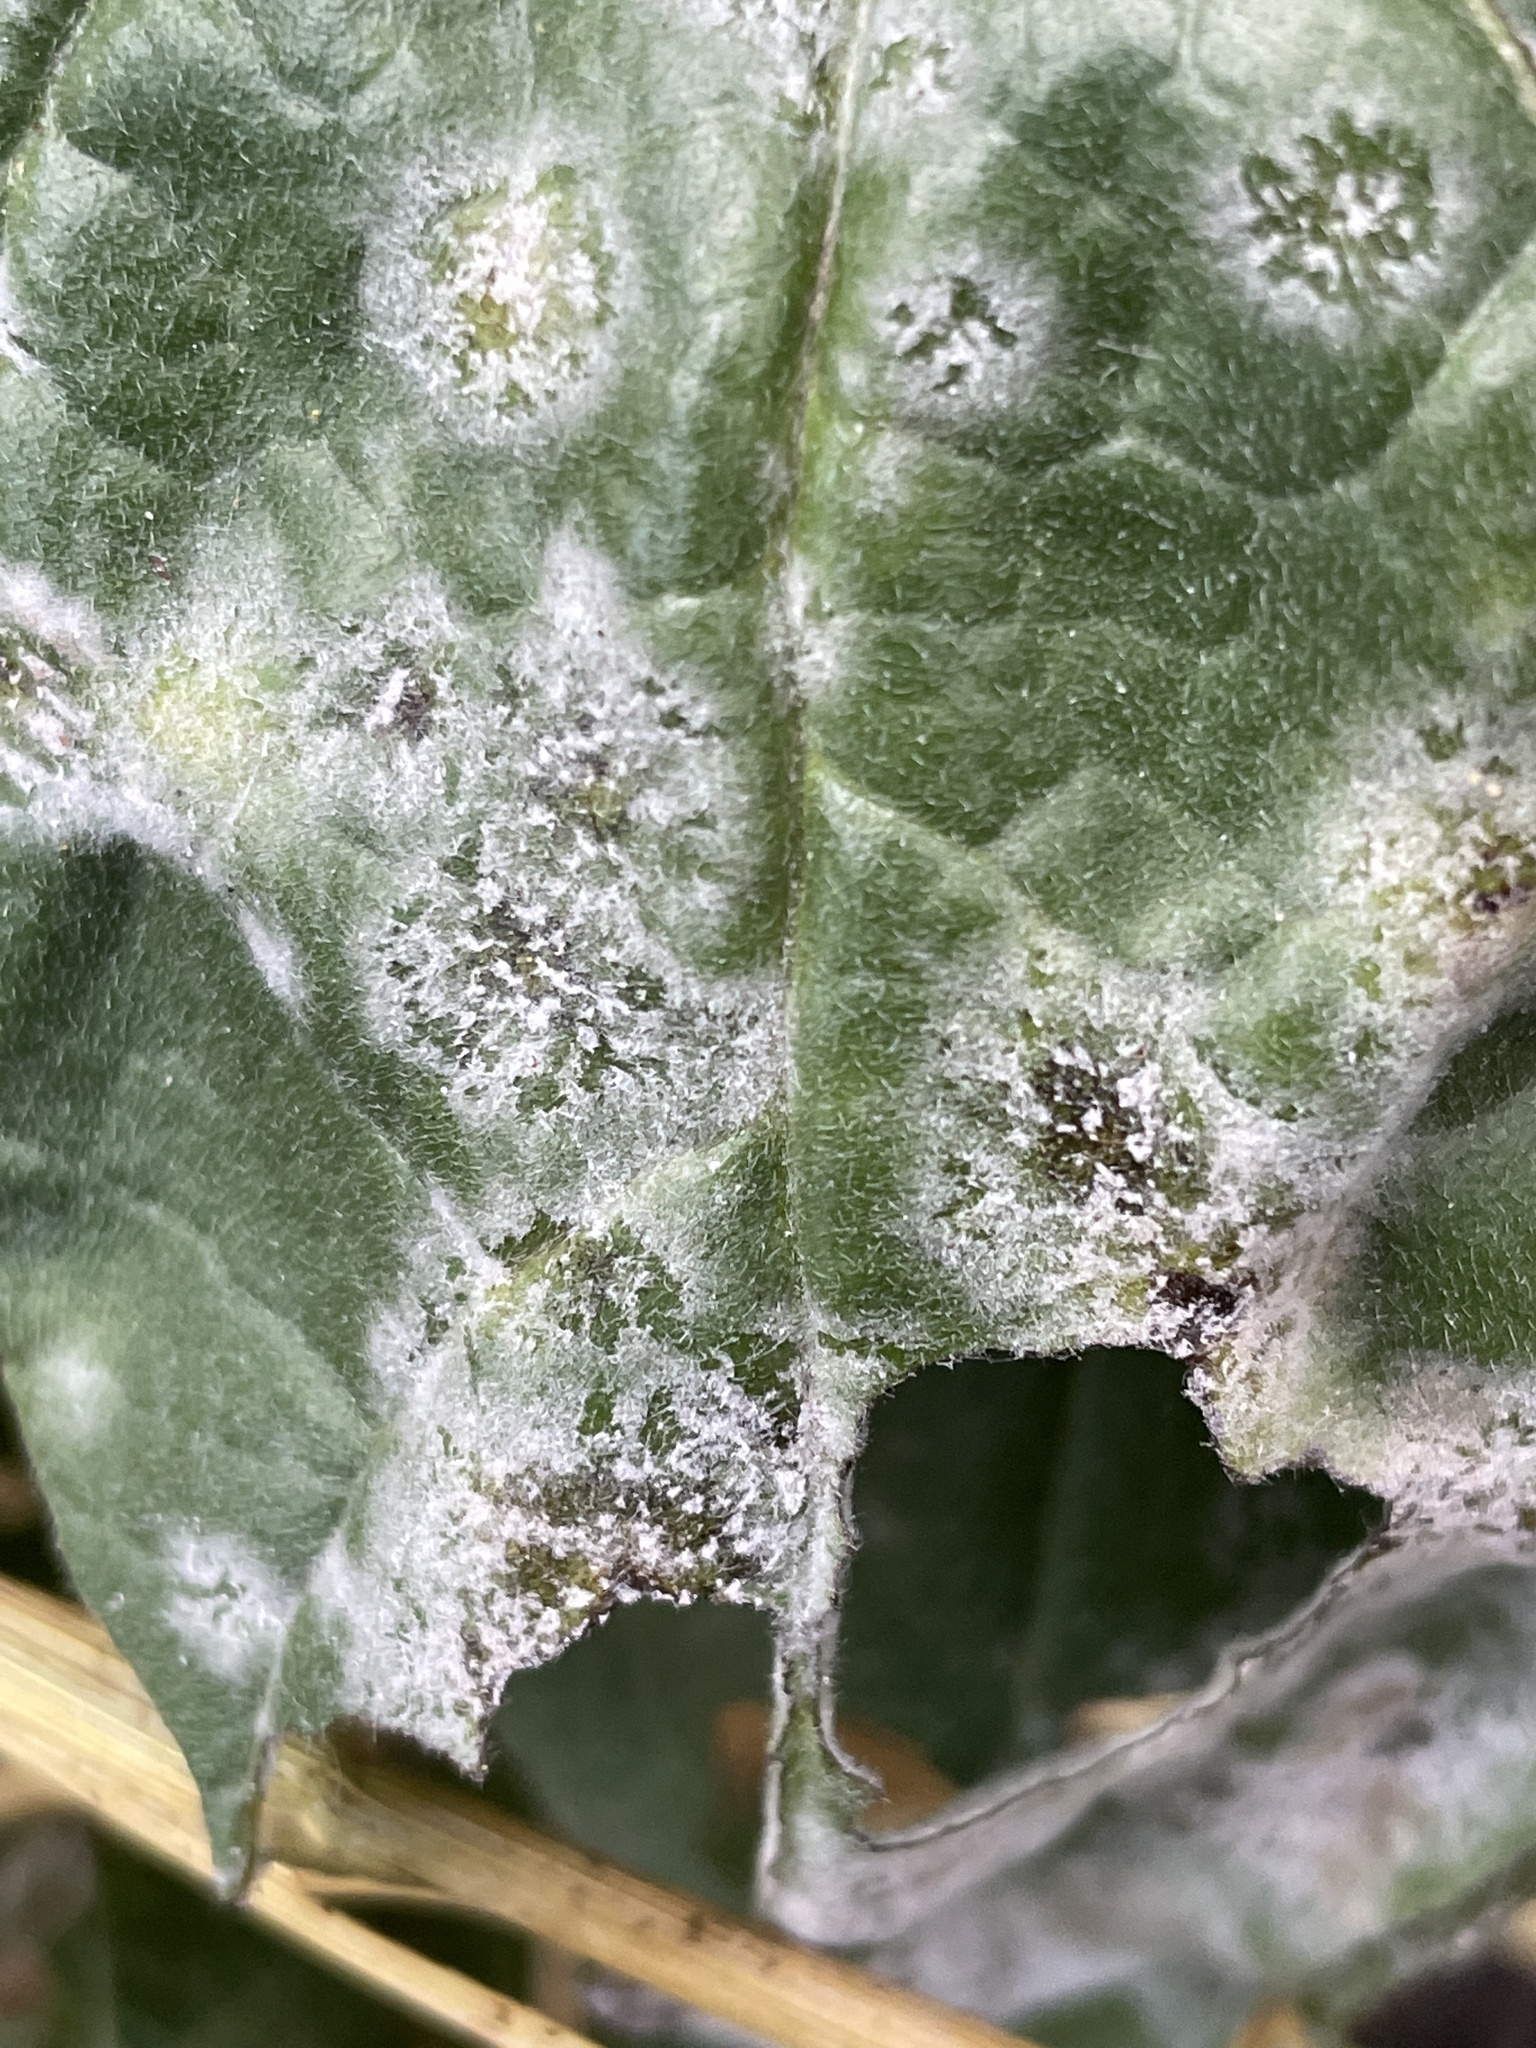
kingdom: Fungi
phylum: Ascomycota
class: Leotiomycetes
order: Helotiales
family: Erysiphaceae
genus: Golovinomyces
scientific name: Golovinomyces cynoglossi
